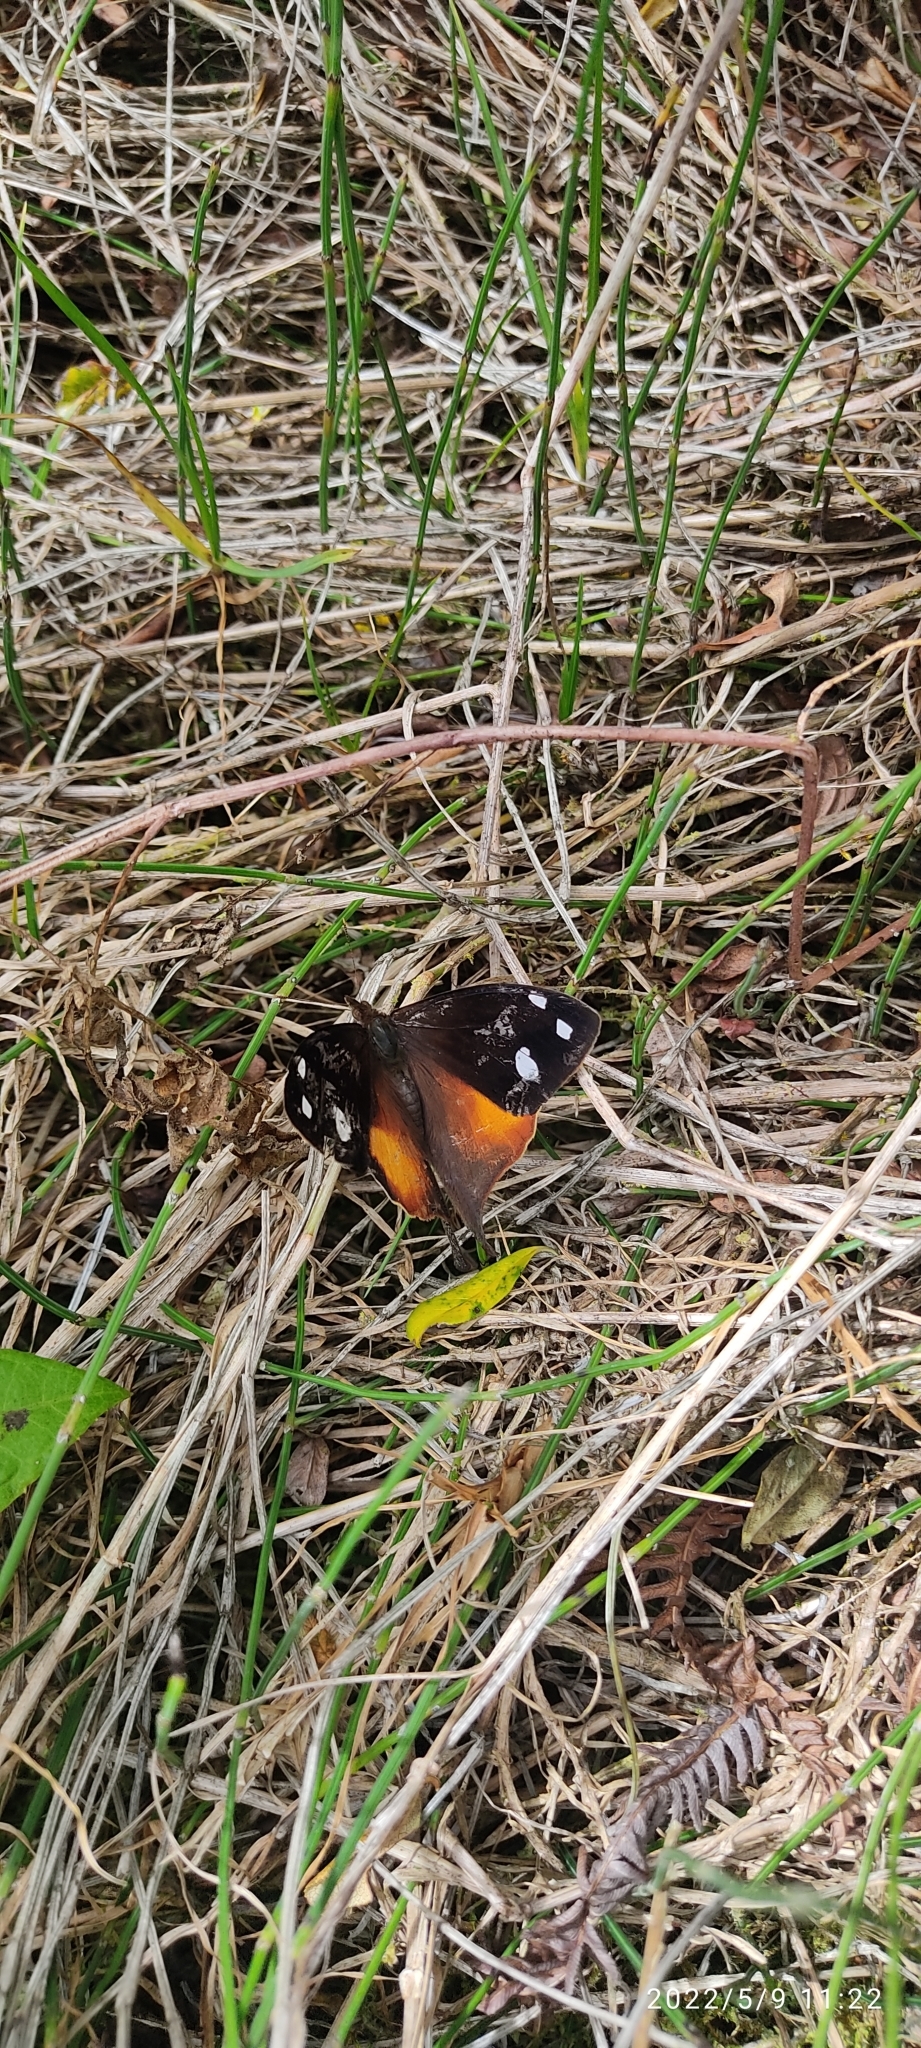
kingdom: Animalia
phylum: Arthropoda
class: Insecta
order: Lepidoptera
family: Nymphalidae
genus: Corades
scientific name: Corades iduna
